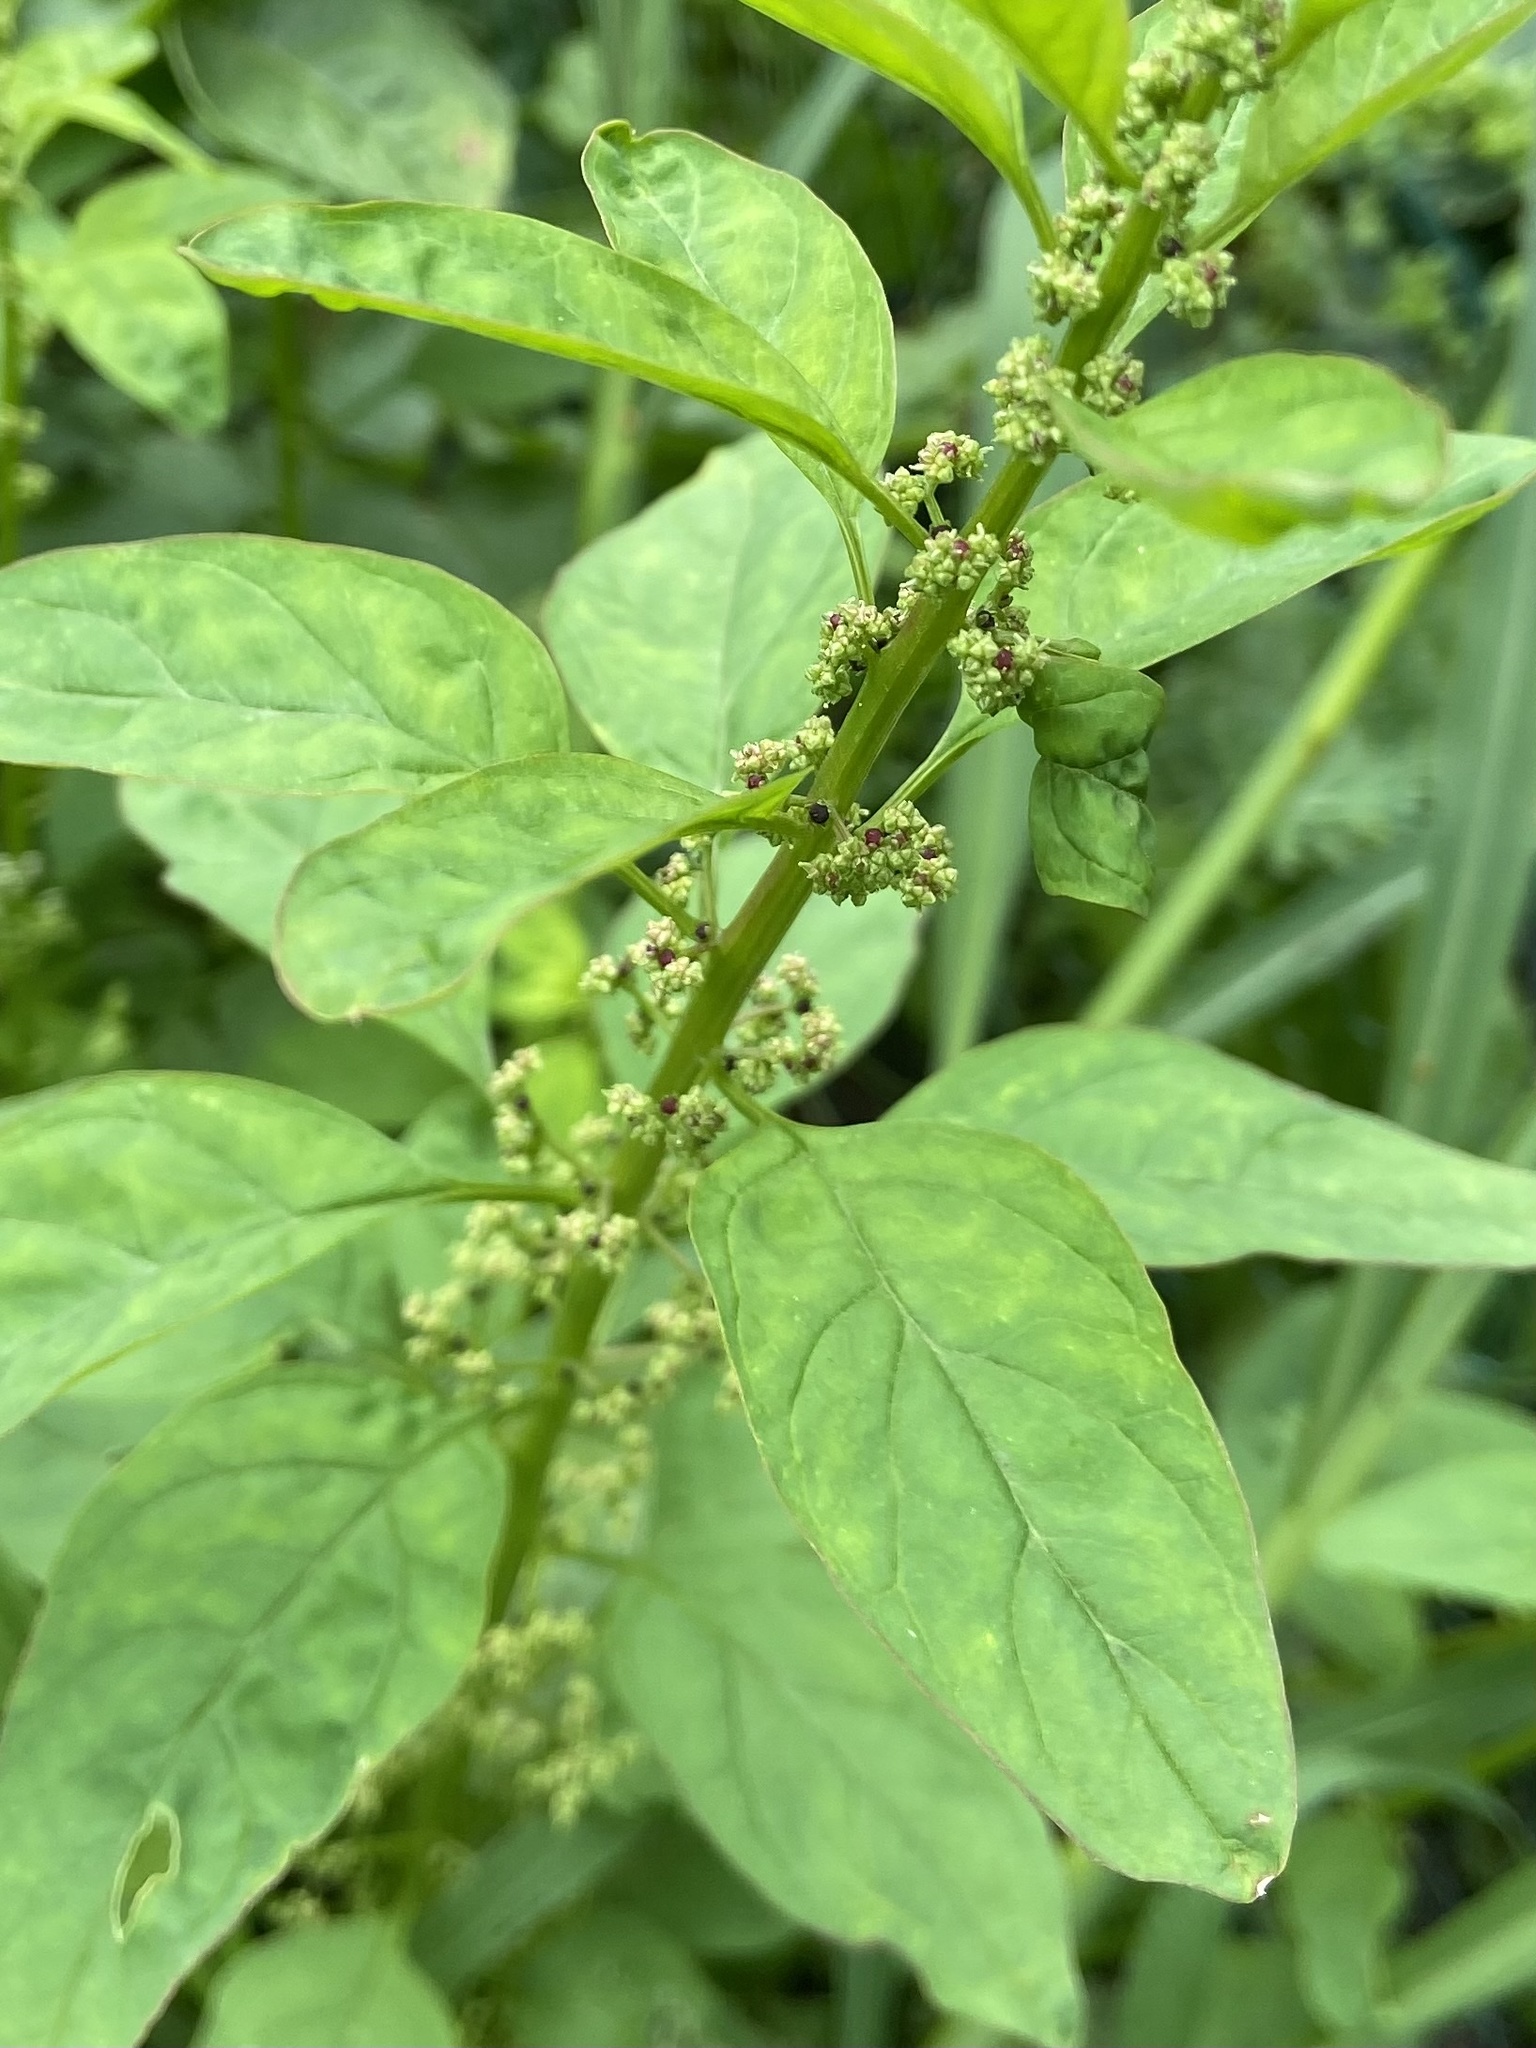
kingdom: Plantae
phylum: Tracheophyta
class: Magnoliopsida
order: Caryophyllales
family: Amaranthaceae
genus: Lipandra
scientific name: Lipandra polysperma
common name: Many-seed goosefoot
